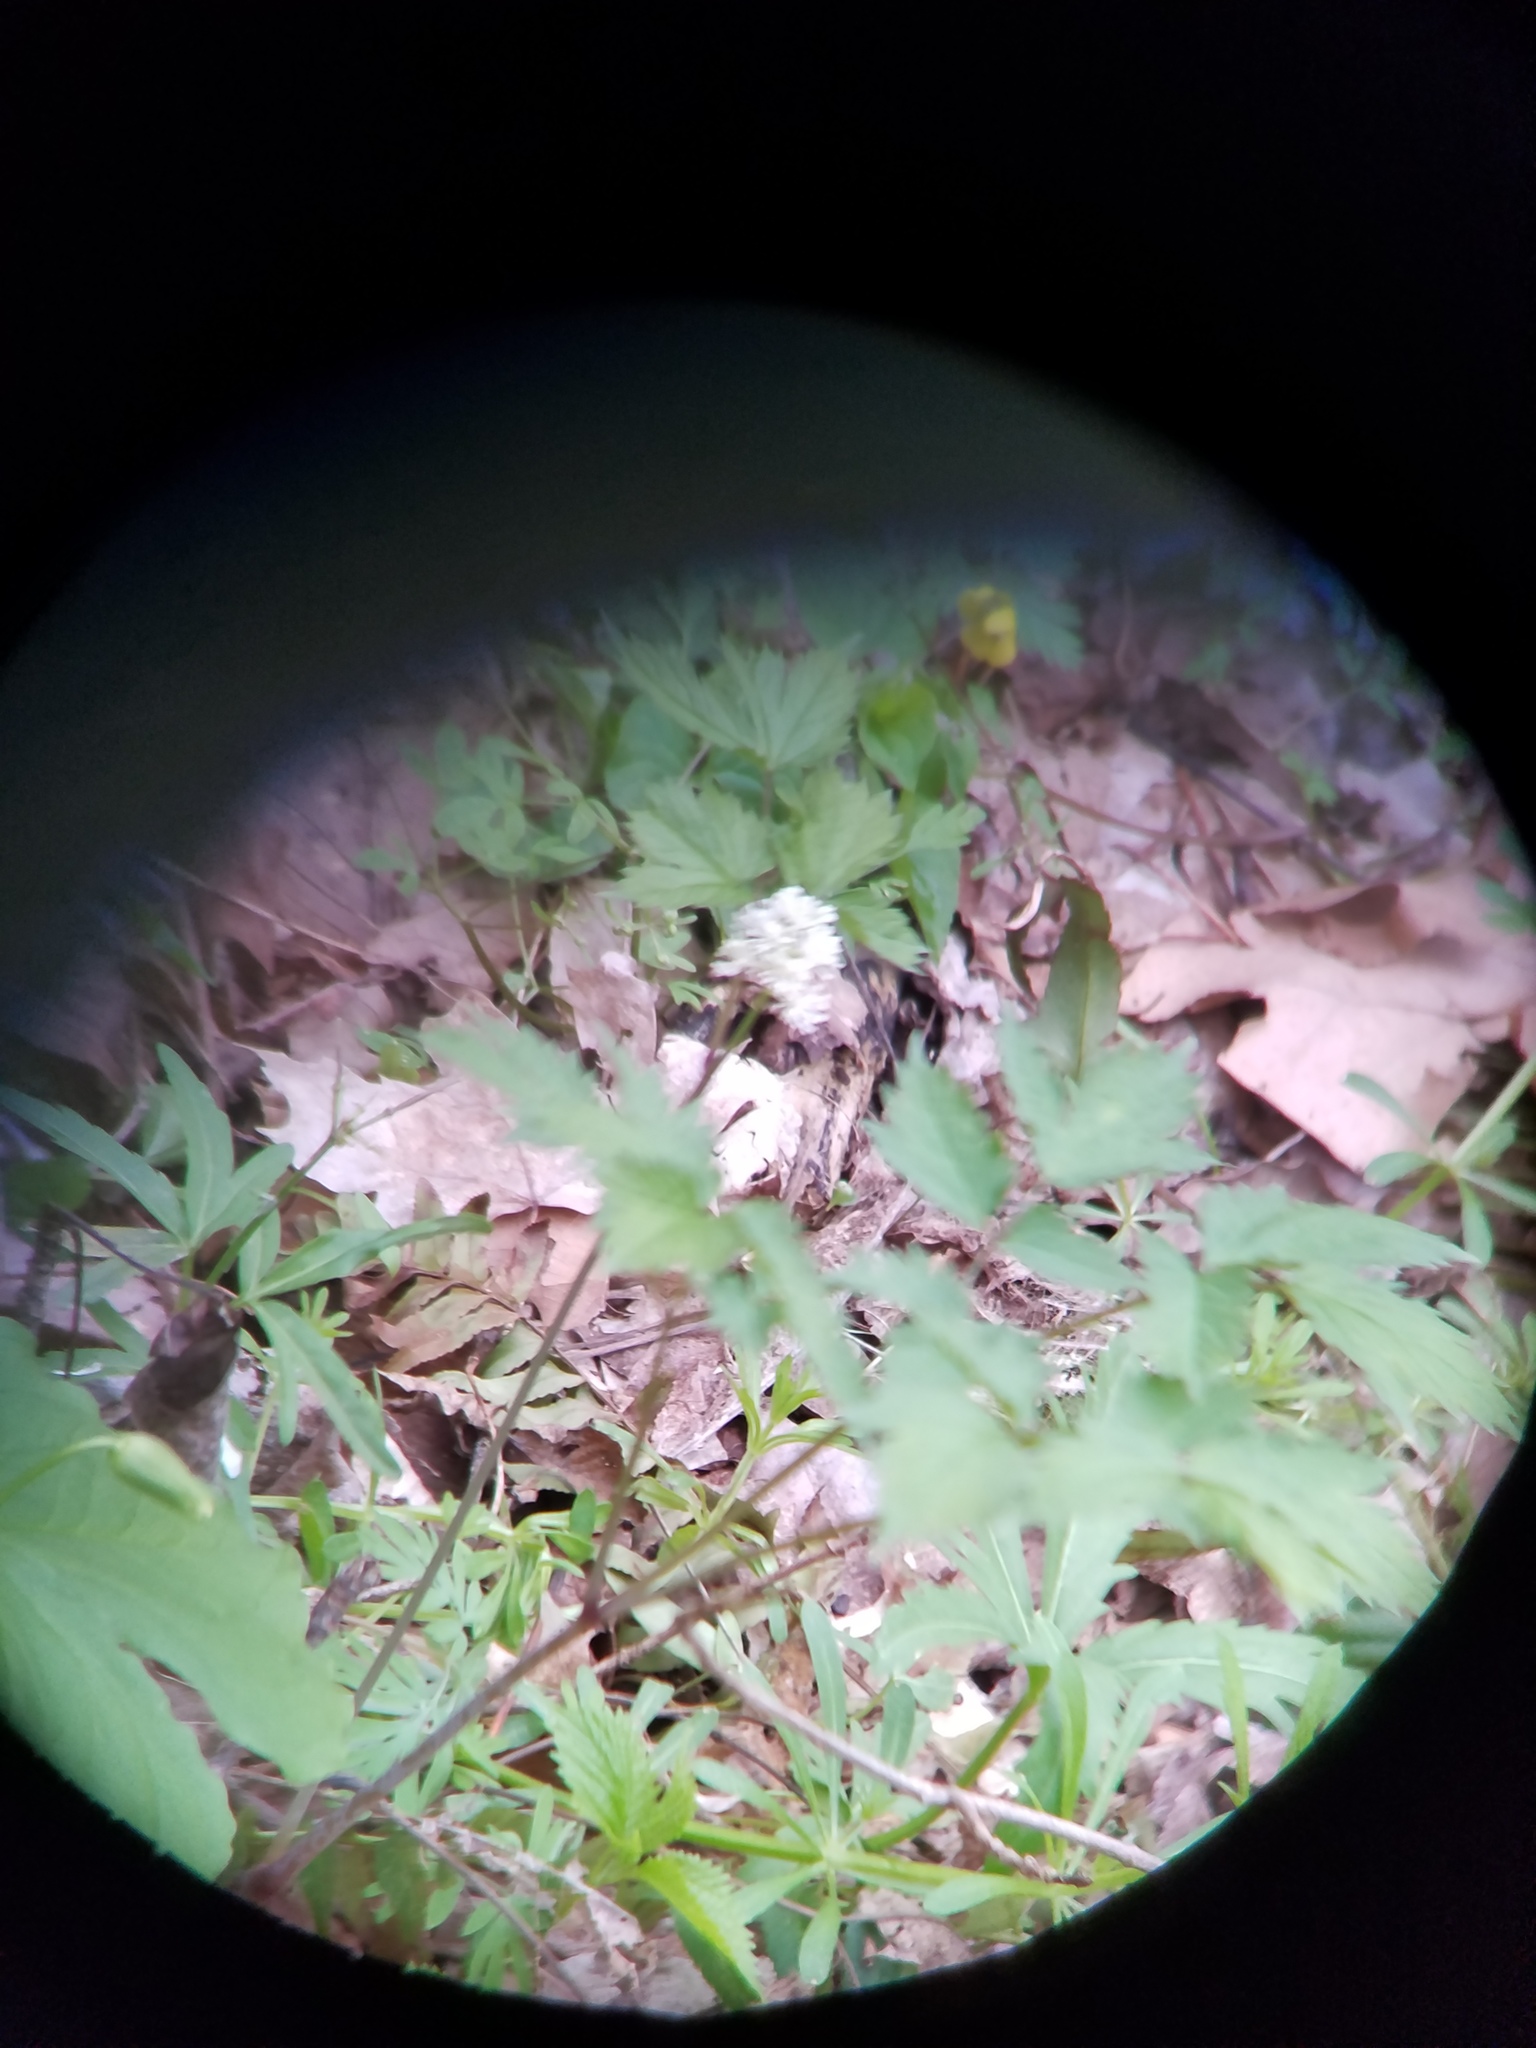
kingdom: Plantae
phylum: Tracheophyta
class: Magnoliopsida
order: Ranunculales
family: Ranunculaceae
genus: Actaea
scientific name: Actaea pachypoda
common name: Doll's-eyes
